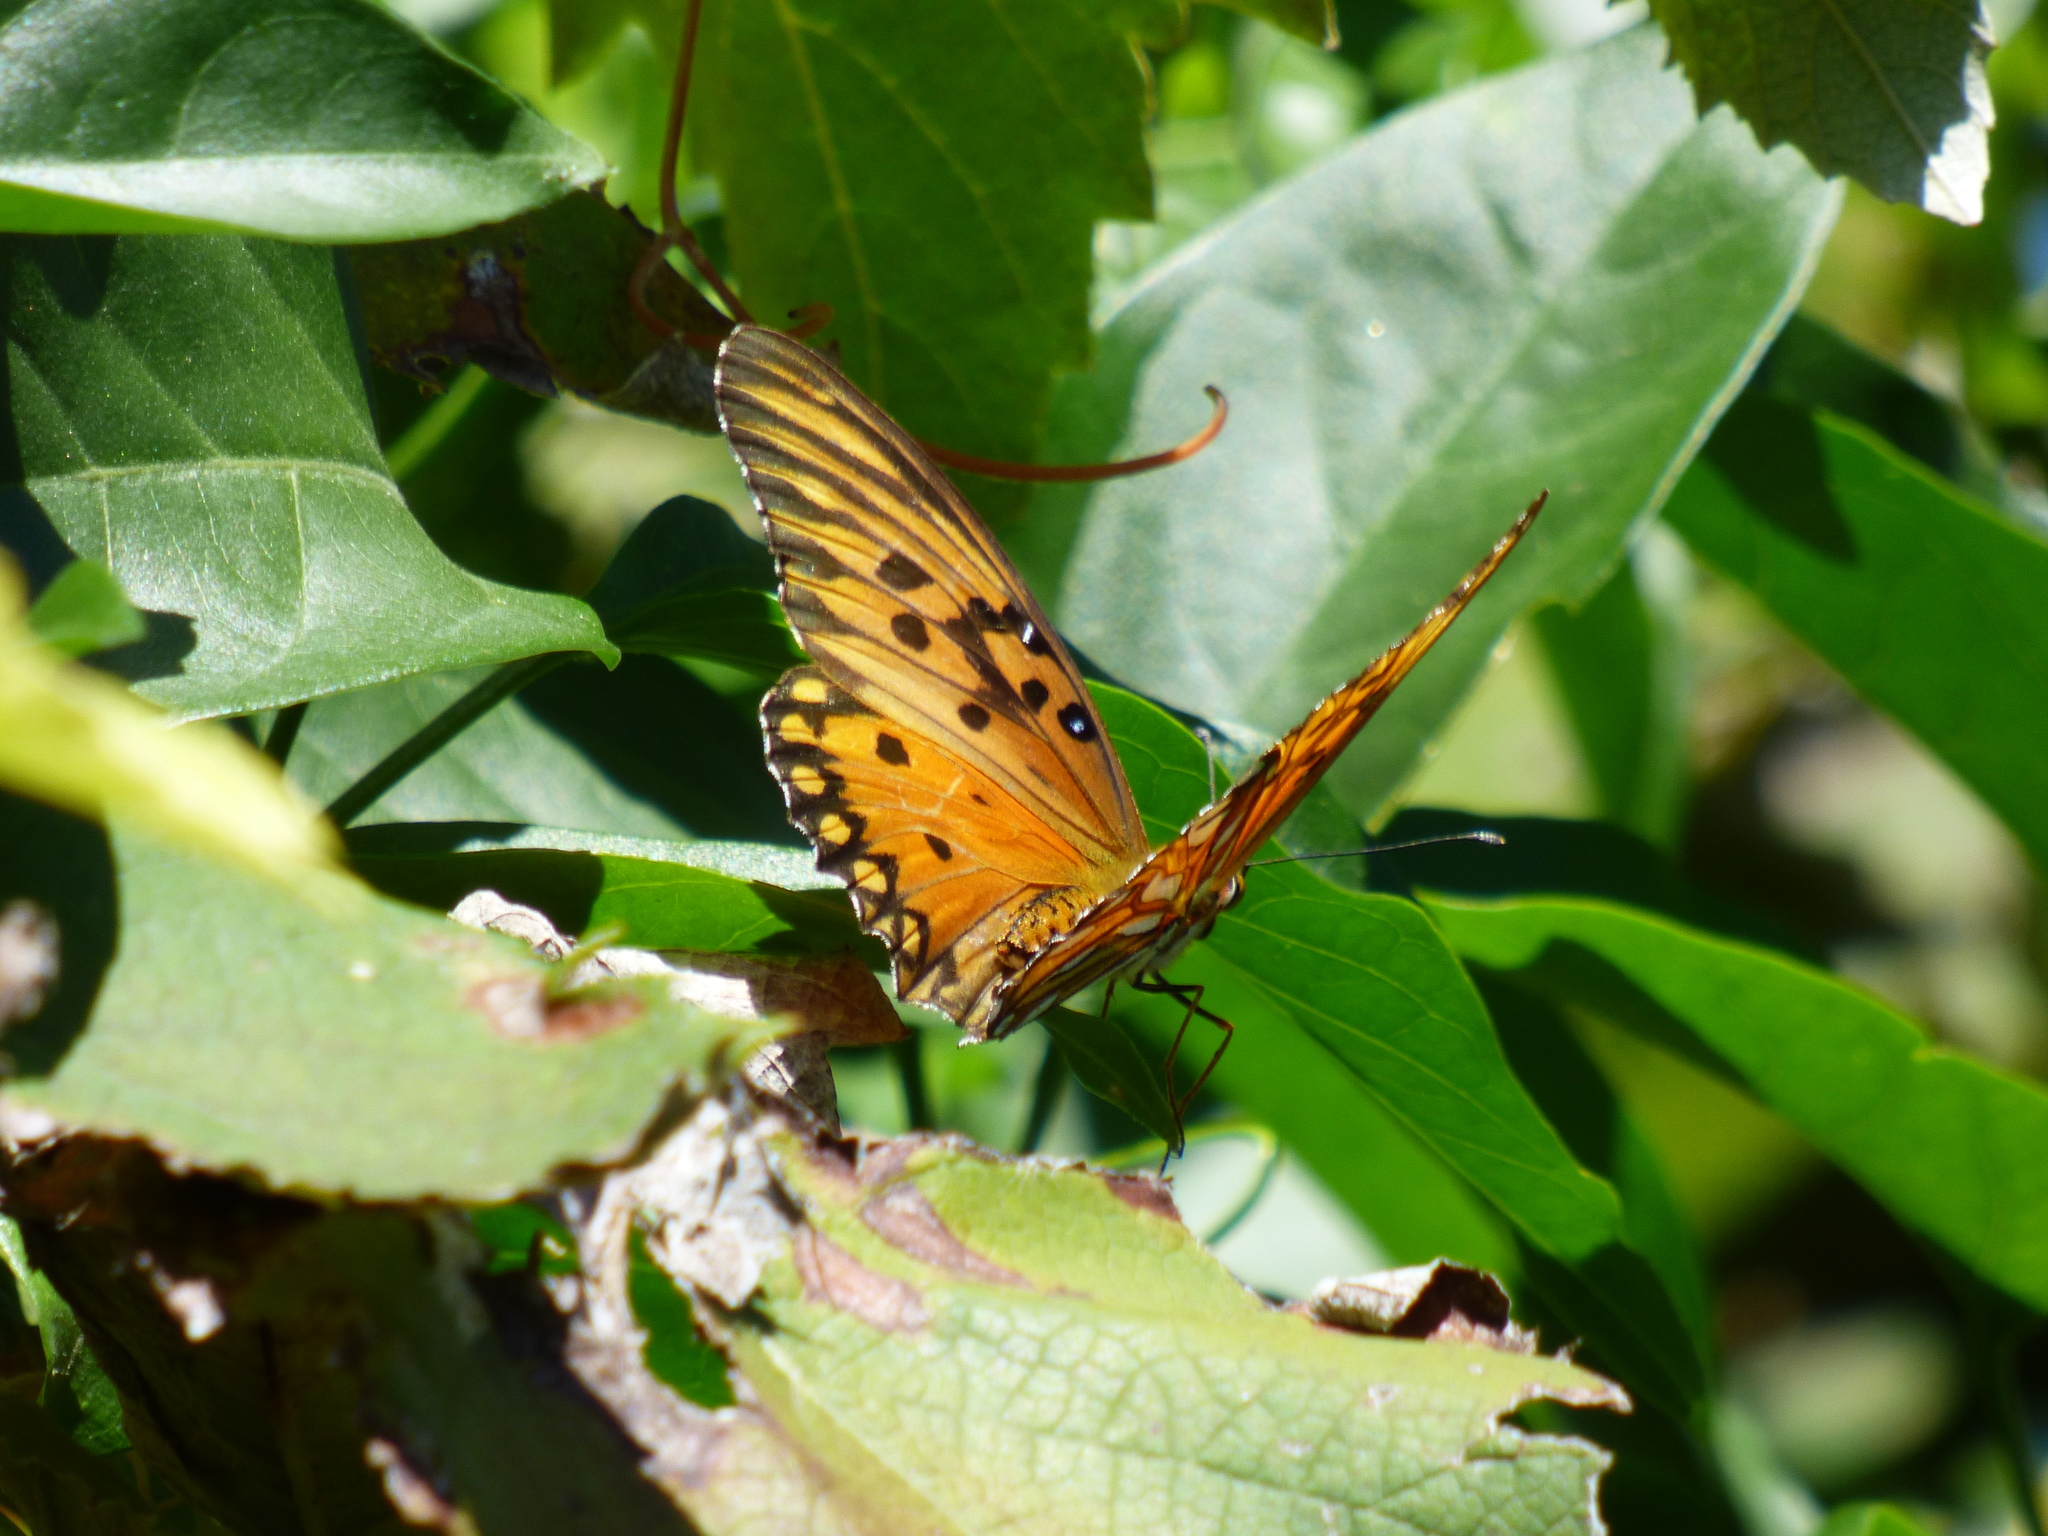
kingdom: Animalia
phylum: Arthropoda
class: Insecta
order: Lepidoptera
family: Nymphalidae
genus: Dione
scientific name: Dione vanillae
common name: Gulf fritillary
